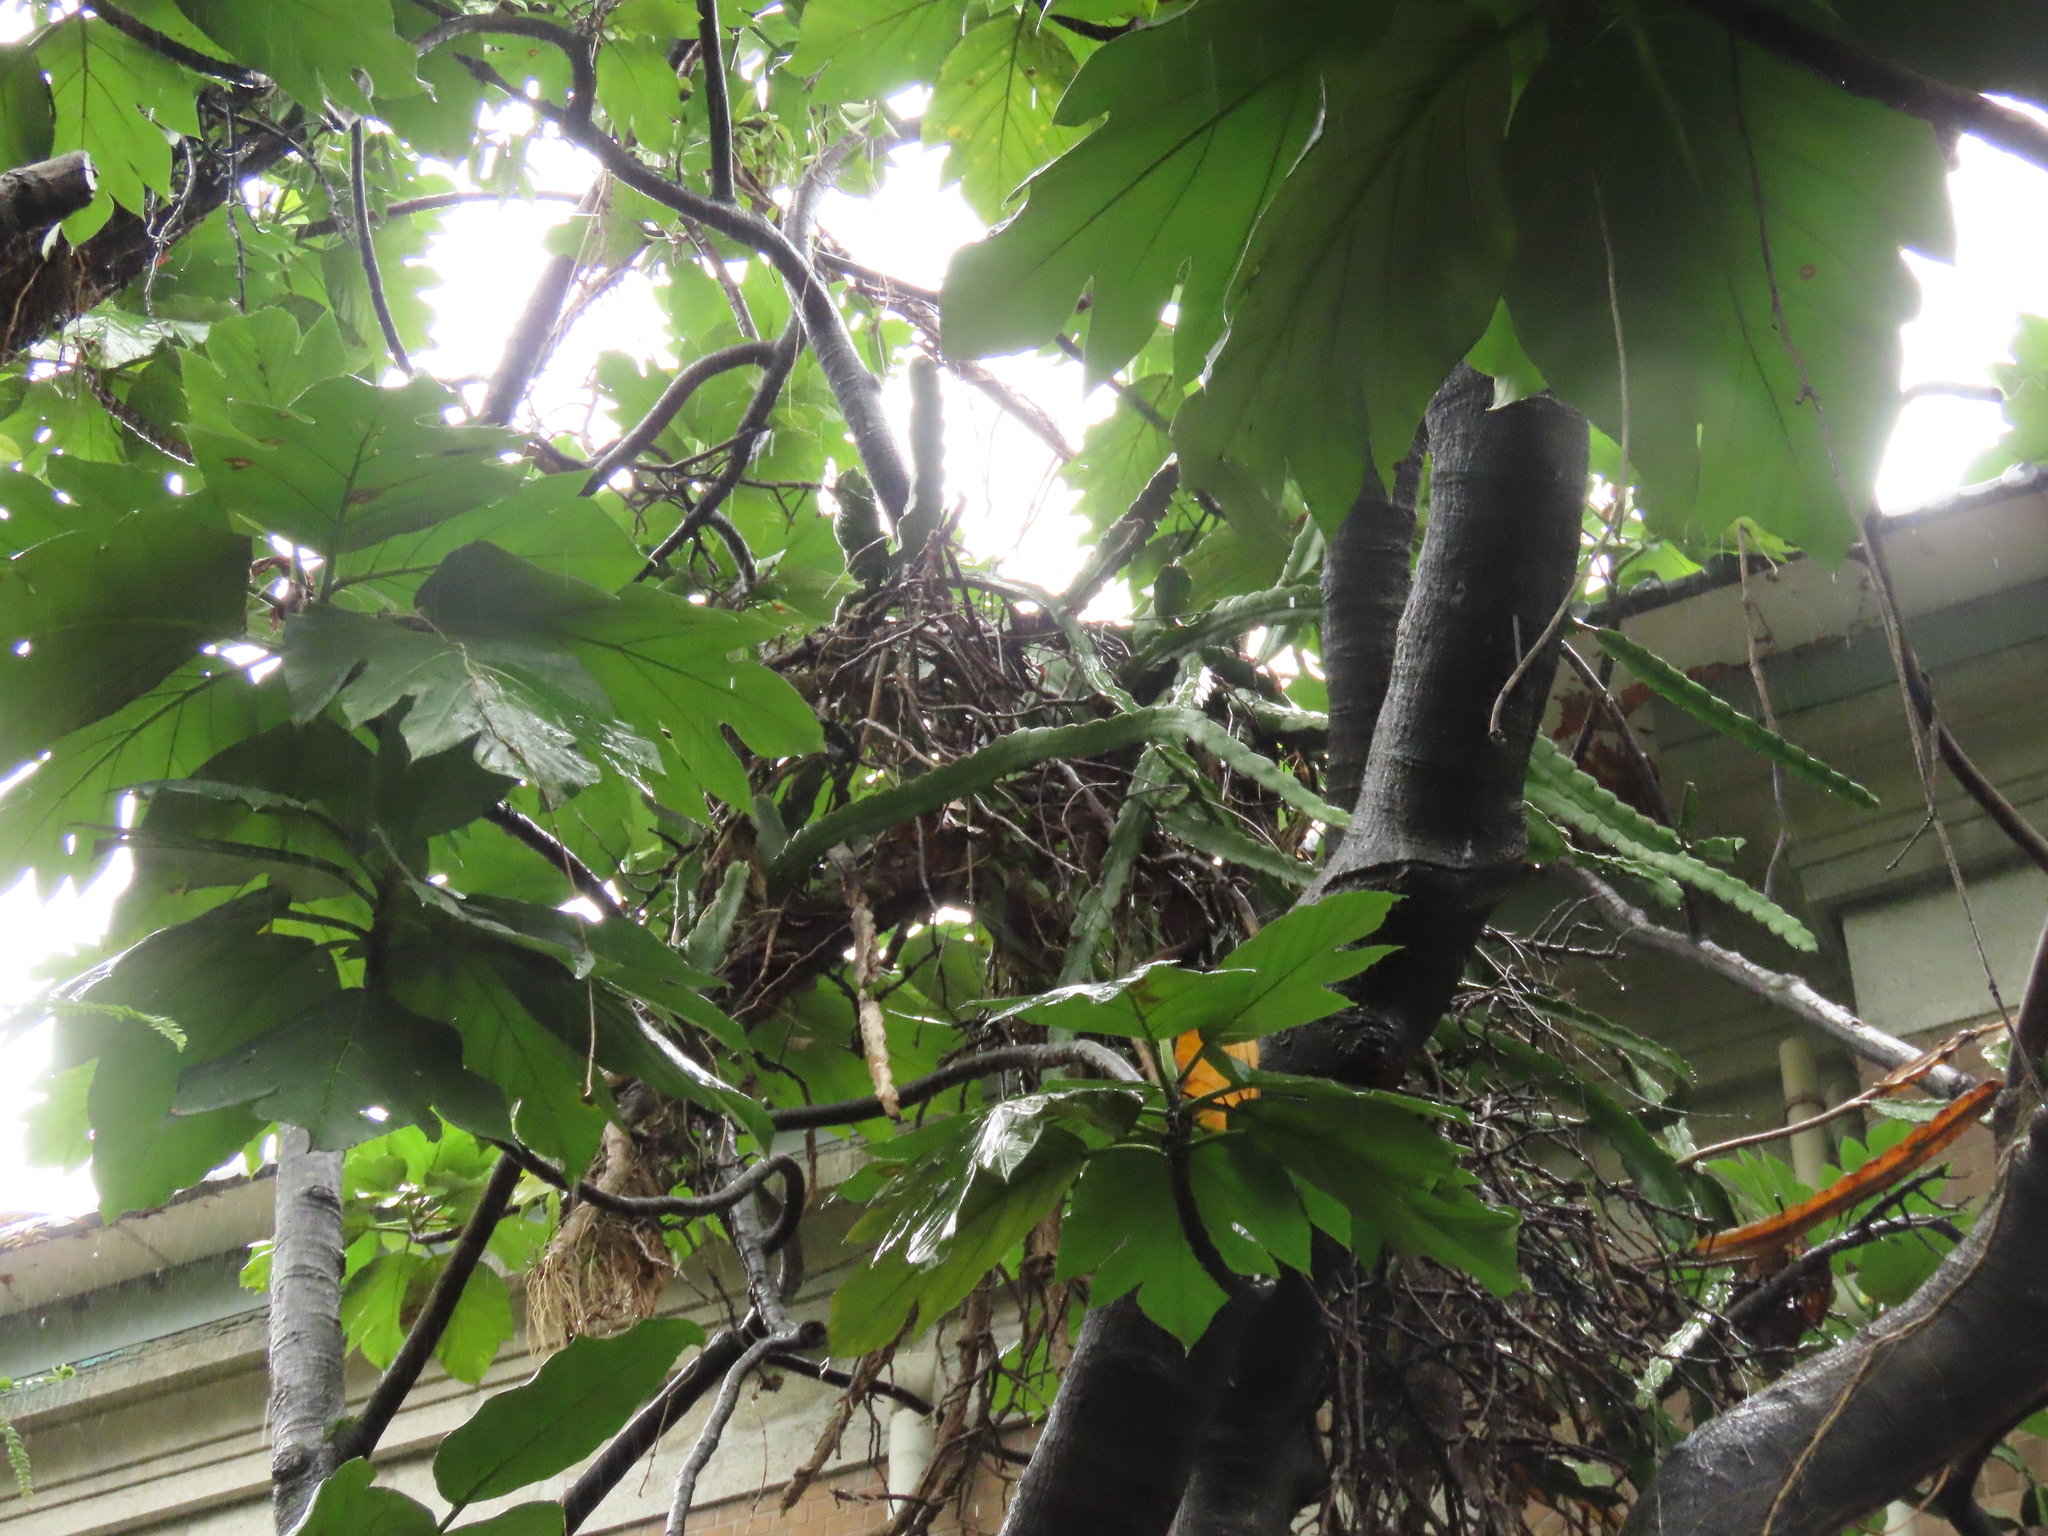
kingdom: Plantae
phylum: Tracheophyta
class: Magnoliopsida
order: Caryophyllales
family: Cactaceae
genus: Selenicereus
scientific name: Selenicereus undatus
